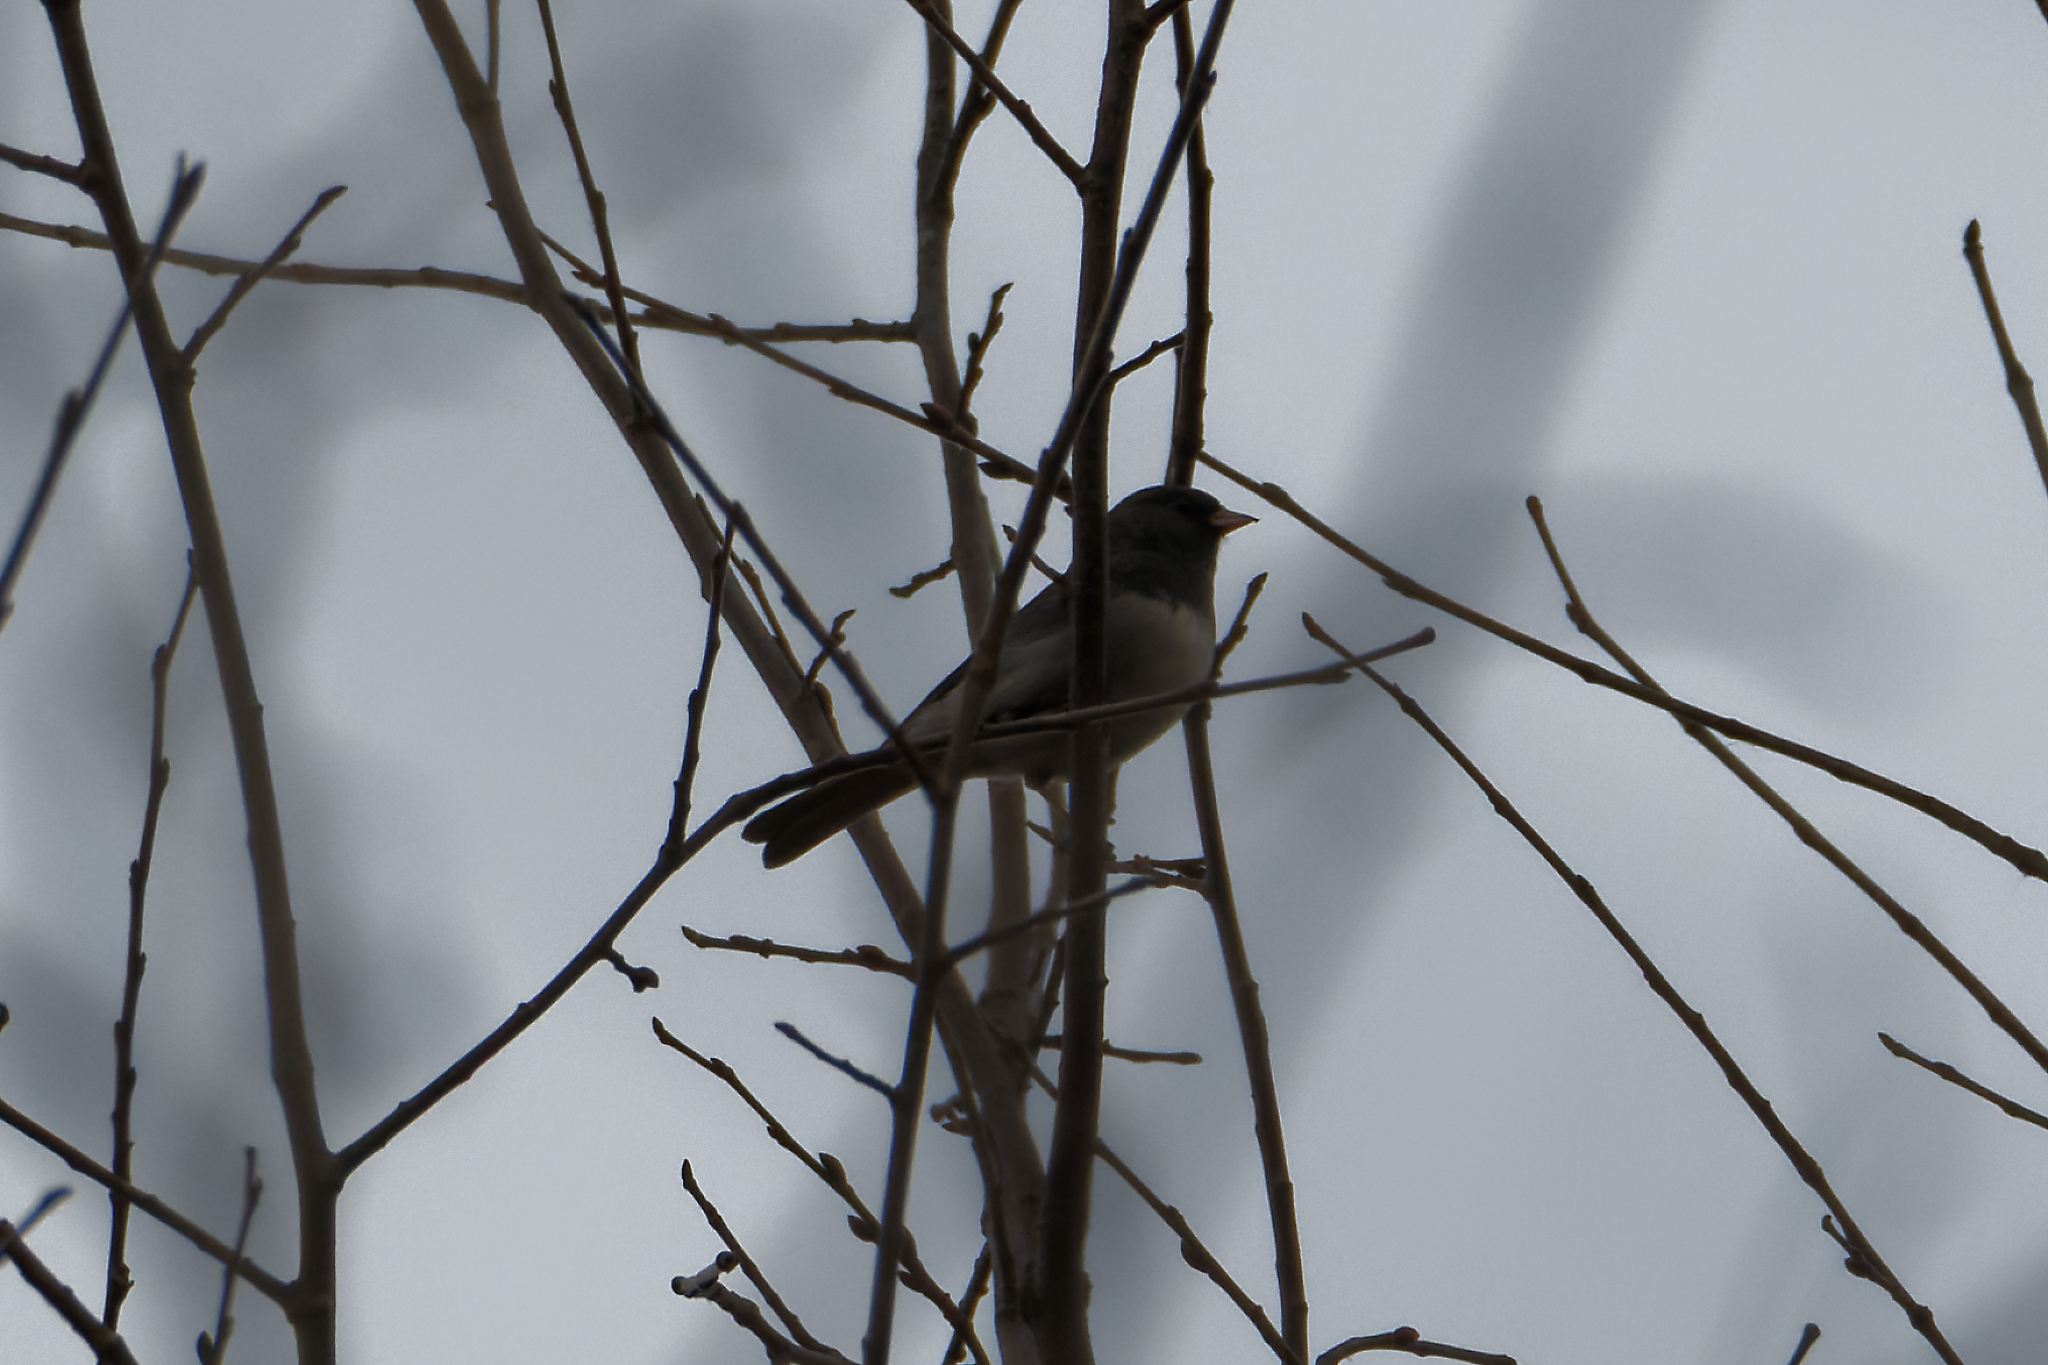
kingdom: Animalia
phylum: Chordata
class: Aves
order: Passeriformes
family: Passerellidae
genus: Junco
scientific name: Junco hyemalis
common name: Dark-eyed junco
